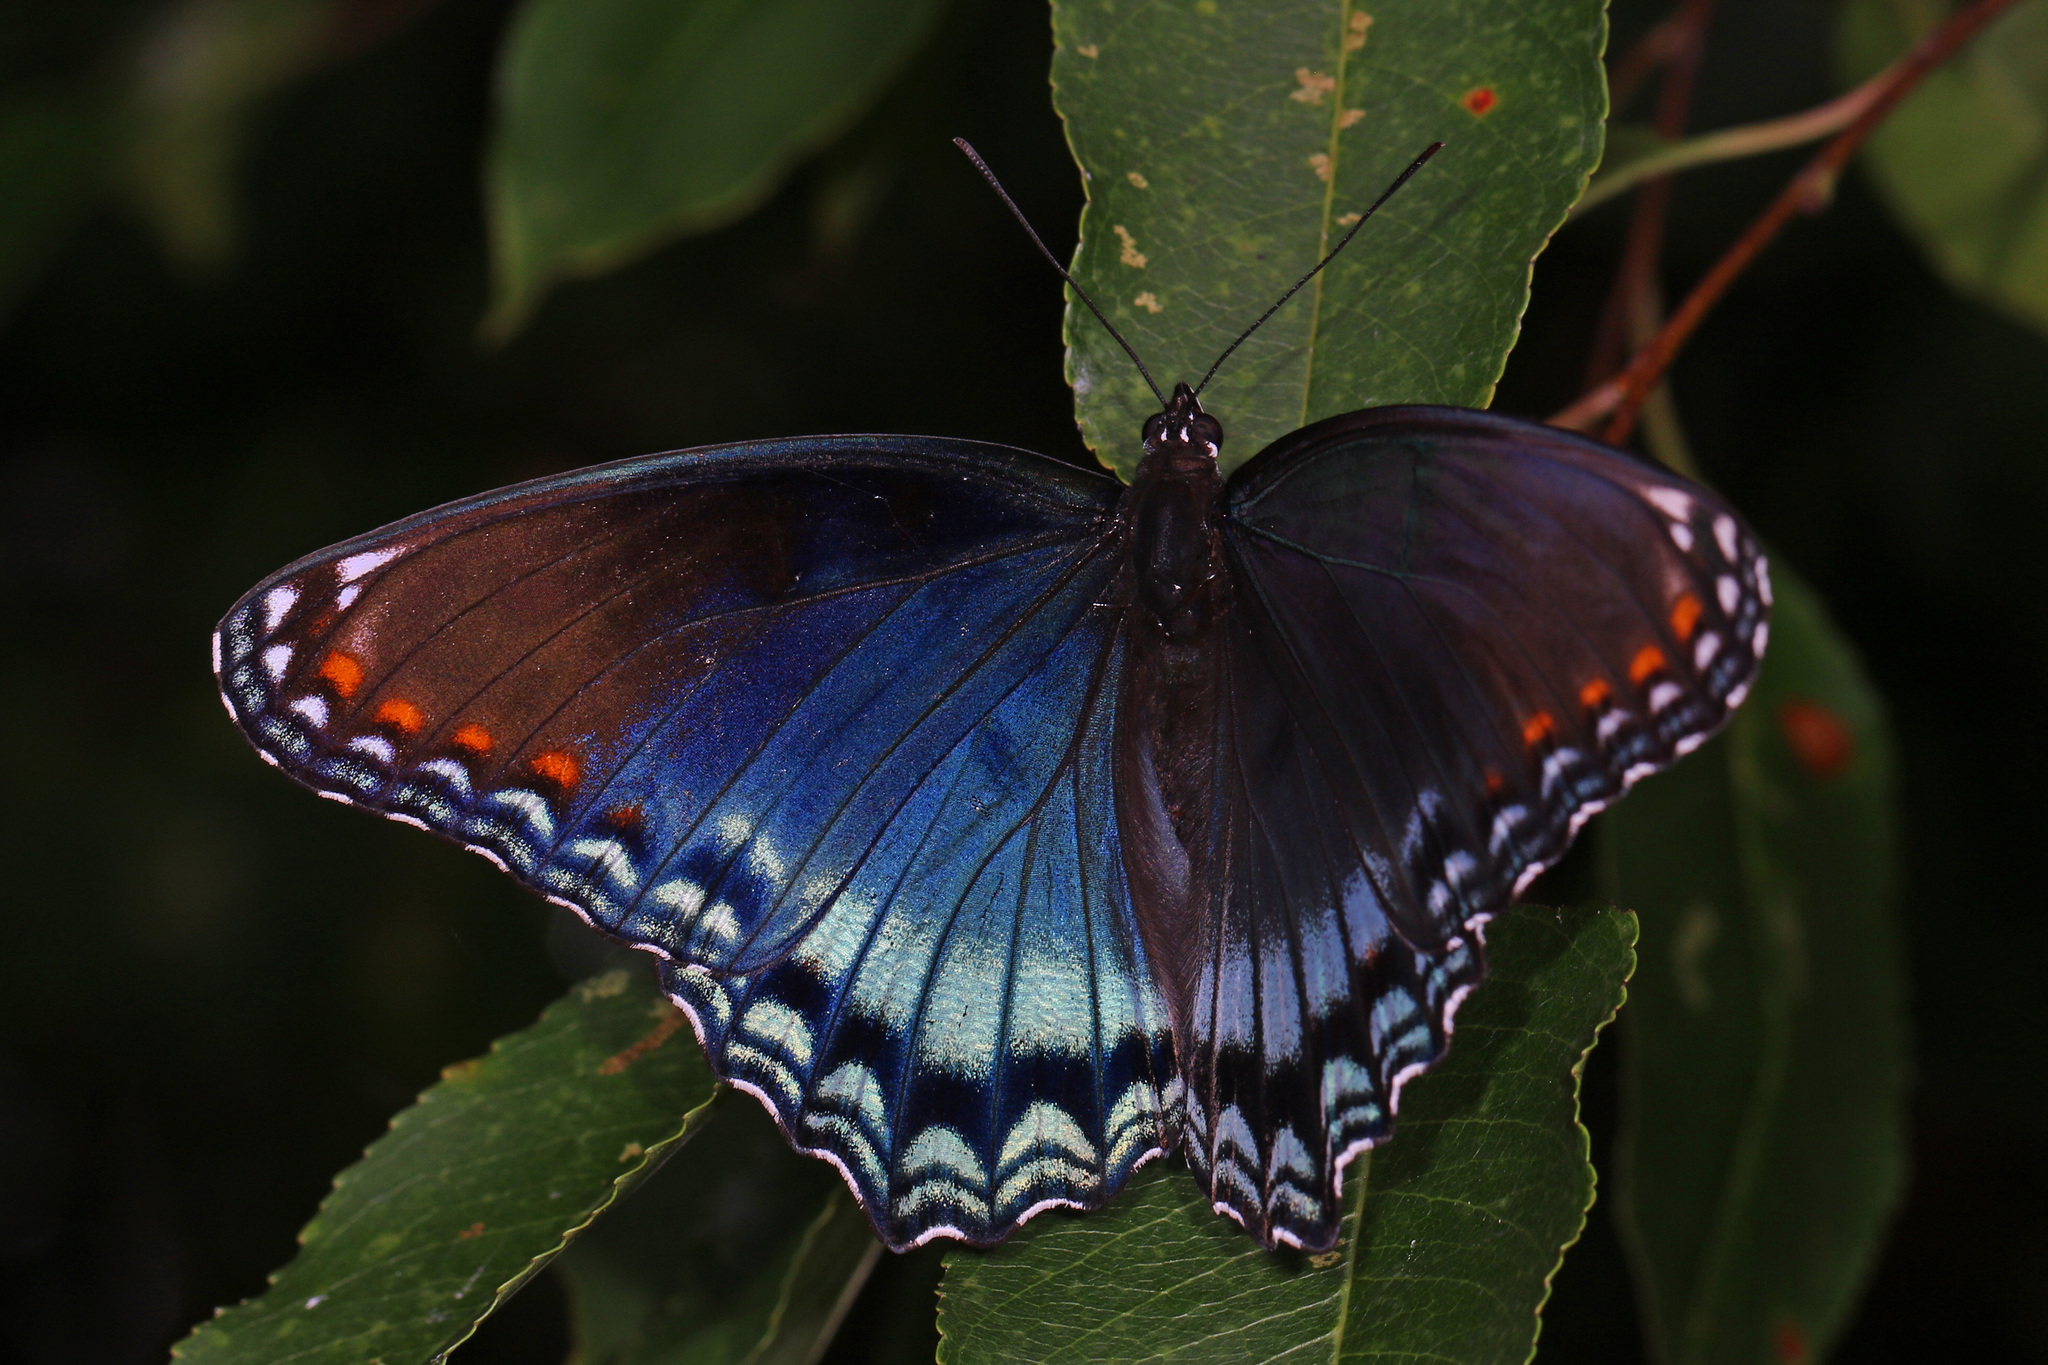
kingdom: Animalia
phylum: Arthropoda
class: Insecta
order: Lepidoptera
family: Nymphalidae
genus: Limenitis
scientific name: Limenitis astyanax
